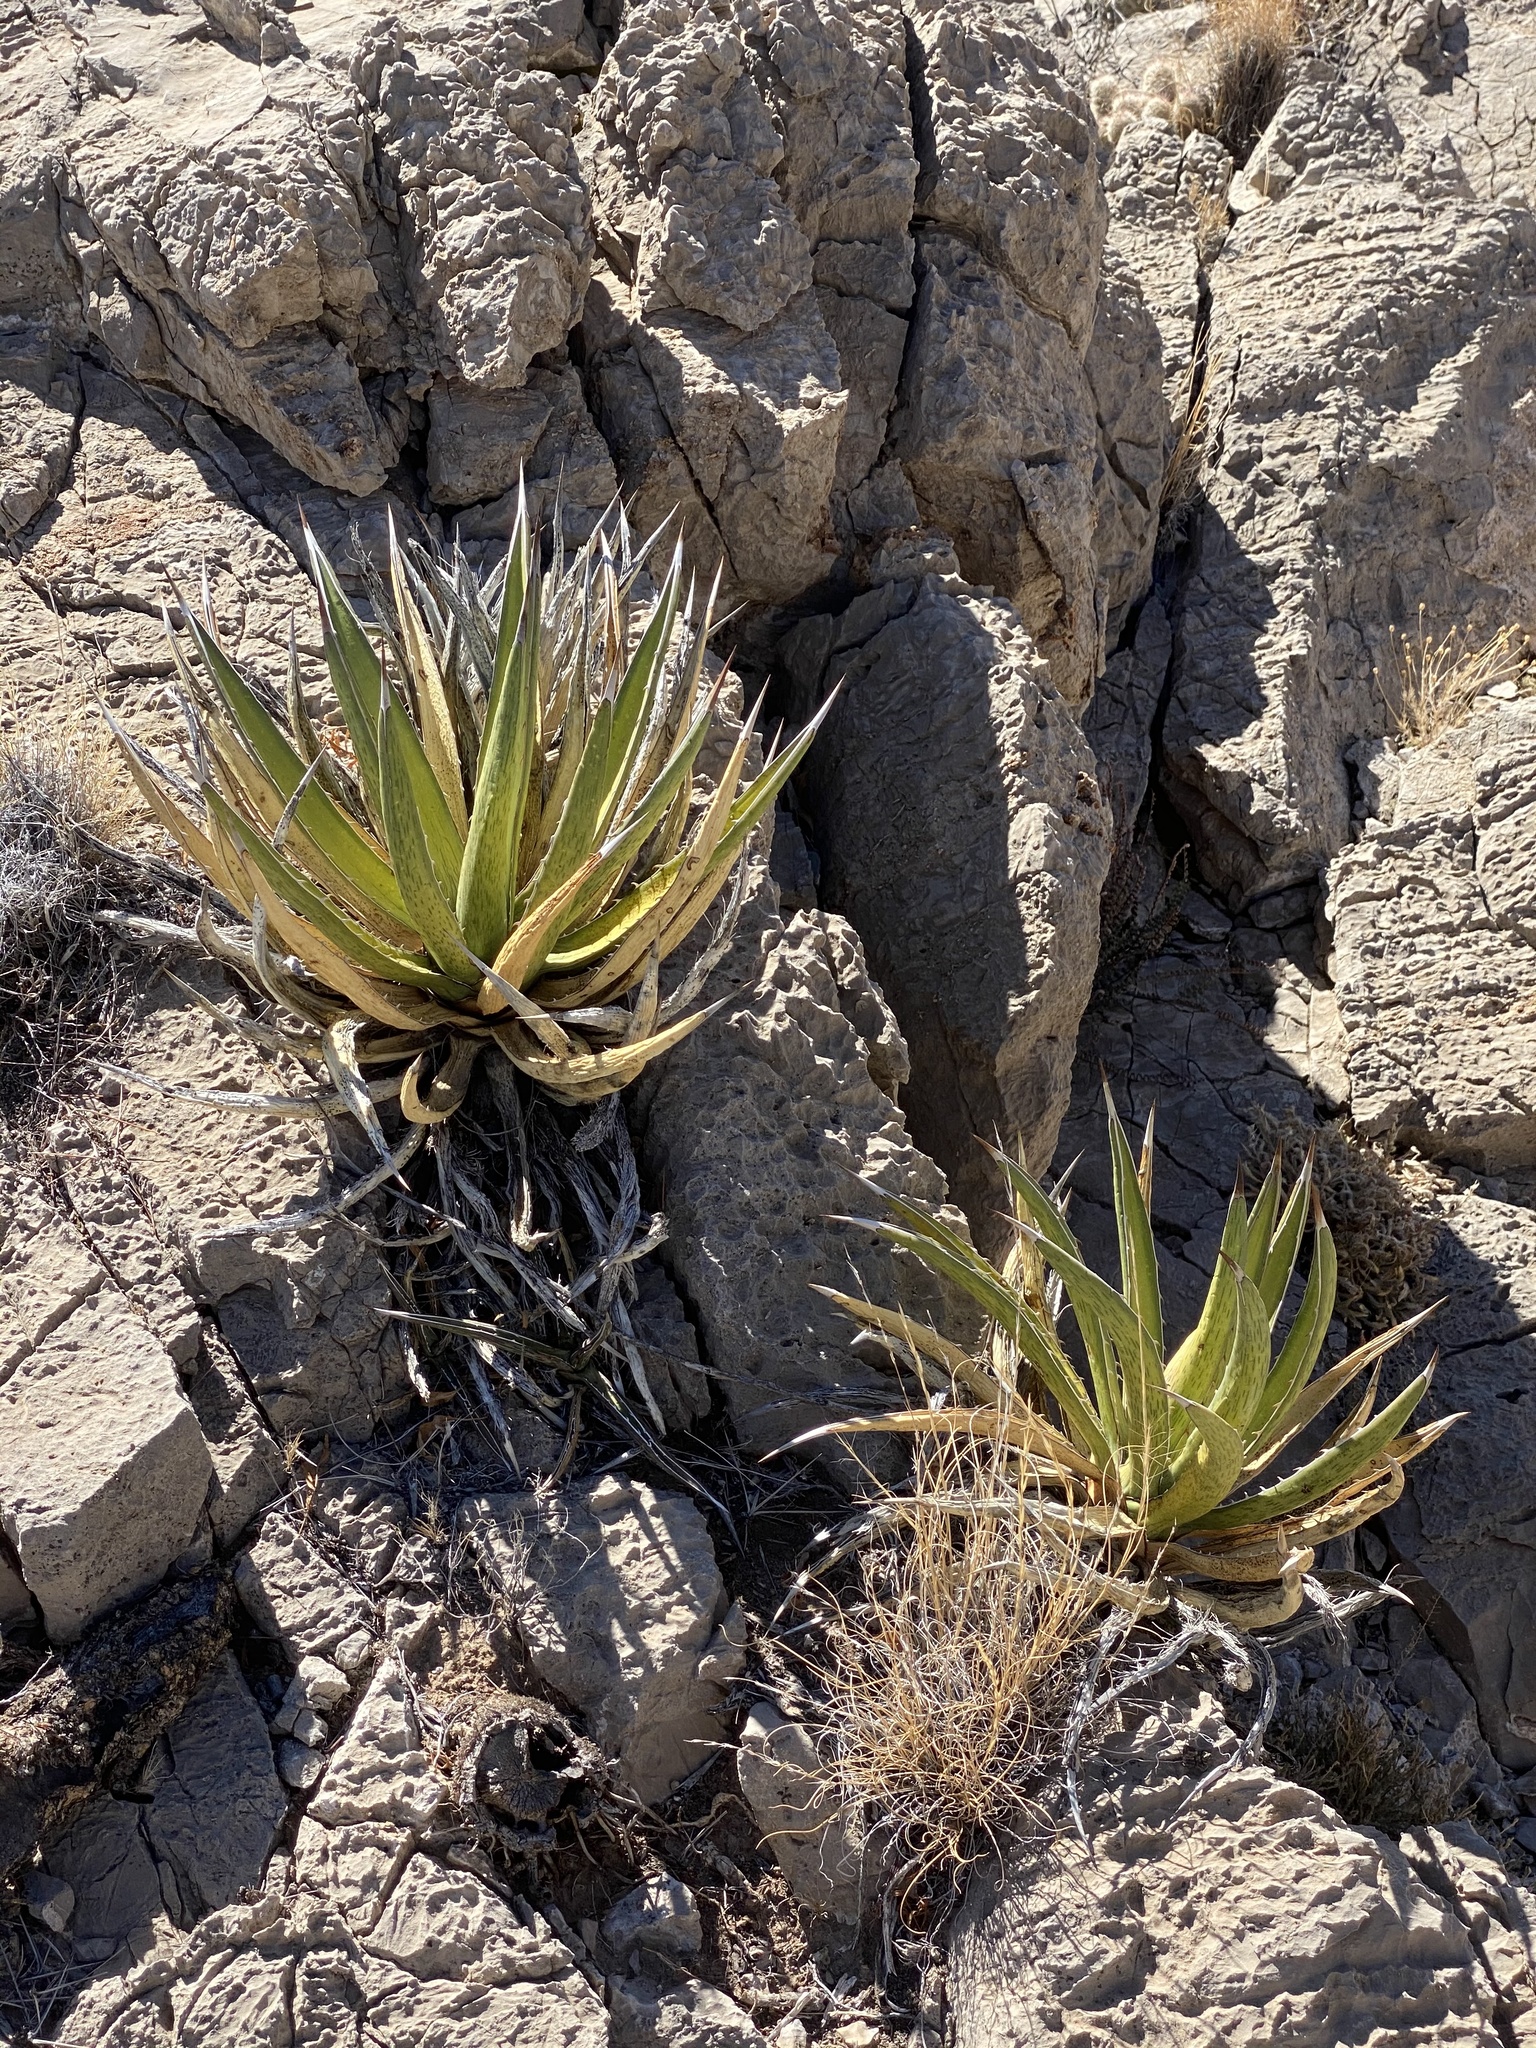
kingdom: Plantae
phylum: Tracheophyta
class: Liliopsida
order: Asparagales
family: Asparagaceae
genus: Agave
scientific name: Agave lechuguilla
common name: Lecheguilla agave
